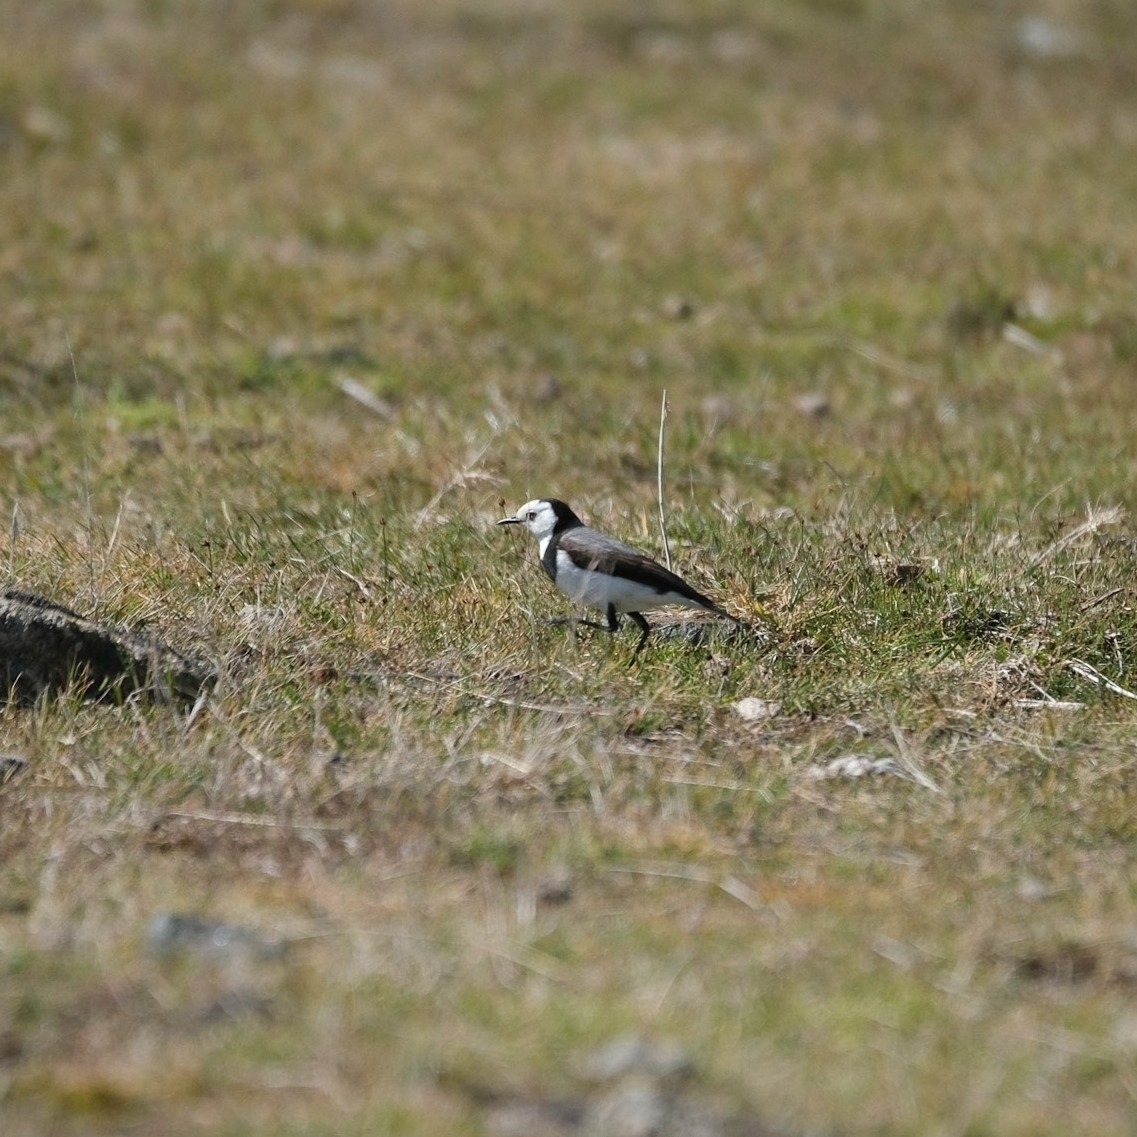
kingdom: Animalia
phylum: Chordata
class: Aves
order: Passeriformes
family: Meliphagidae
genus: Epthianura
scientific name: Epthianura albifrons
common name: White-fronted chat
